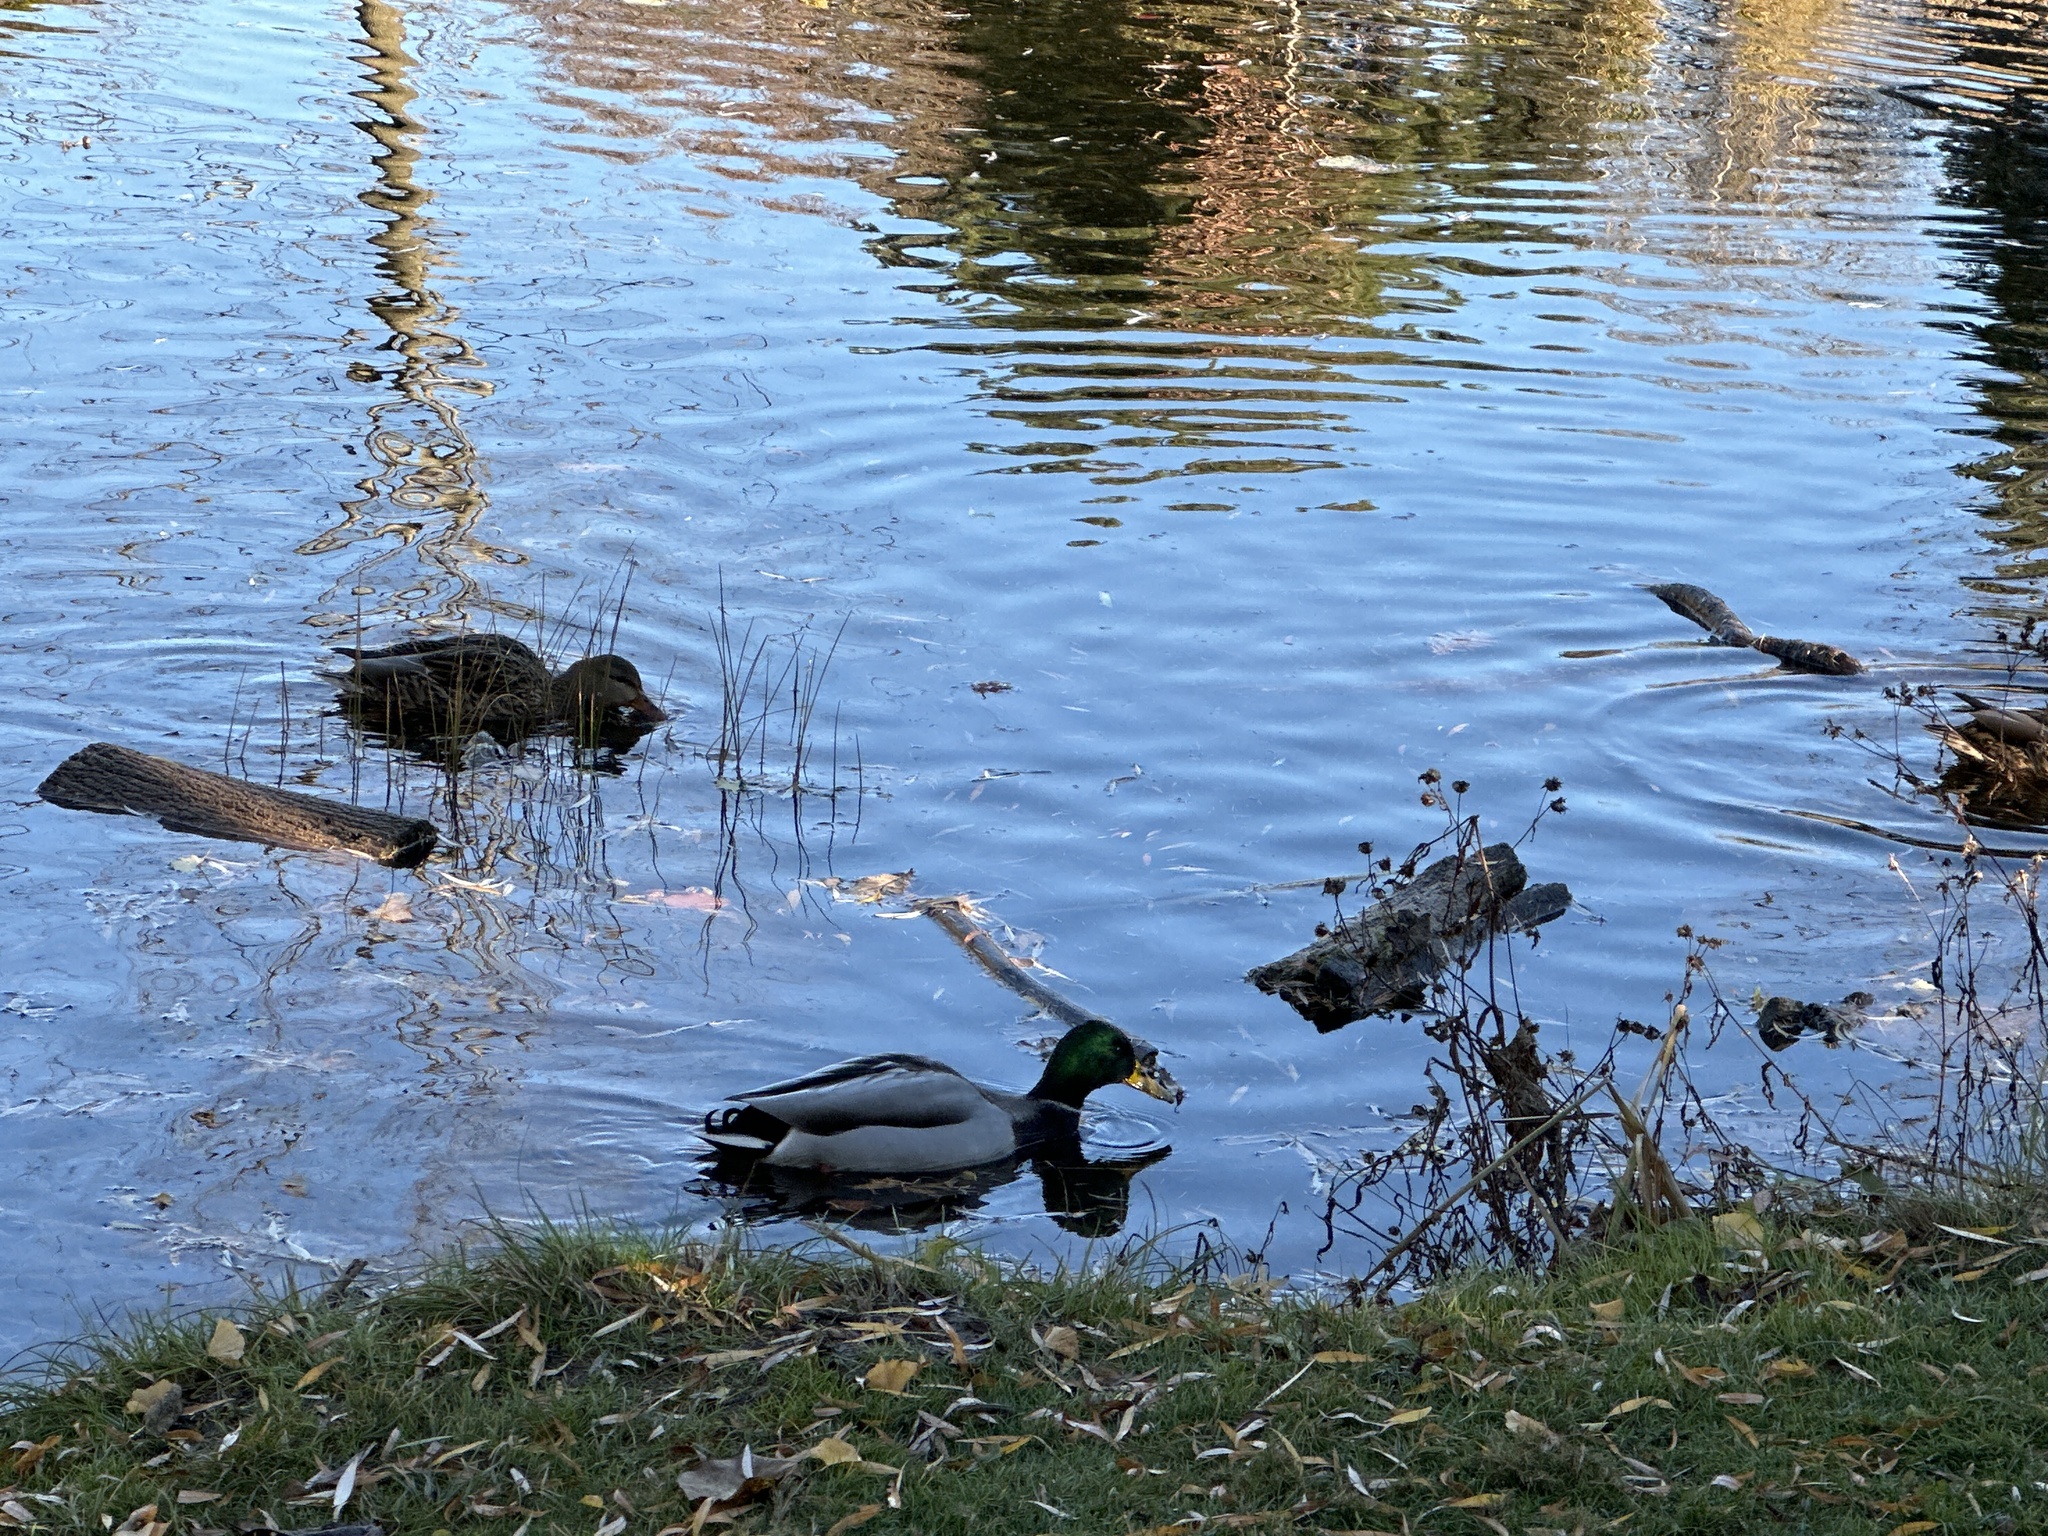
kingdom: Animalia
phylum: Chordata
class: Aves
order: Anseriformes
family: Anatidae
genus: Anas
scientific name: Anas platyrhynchos
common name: Mallard
